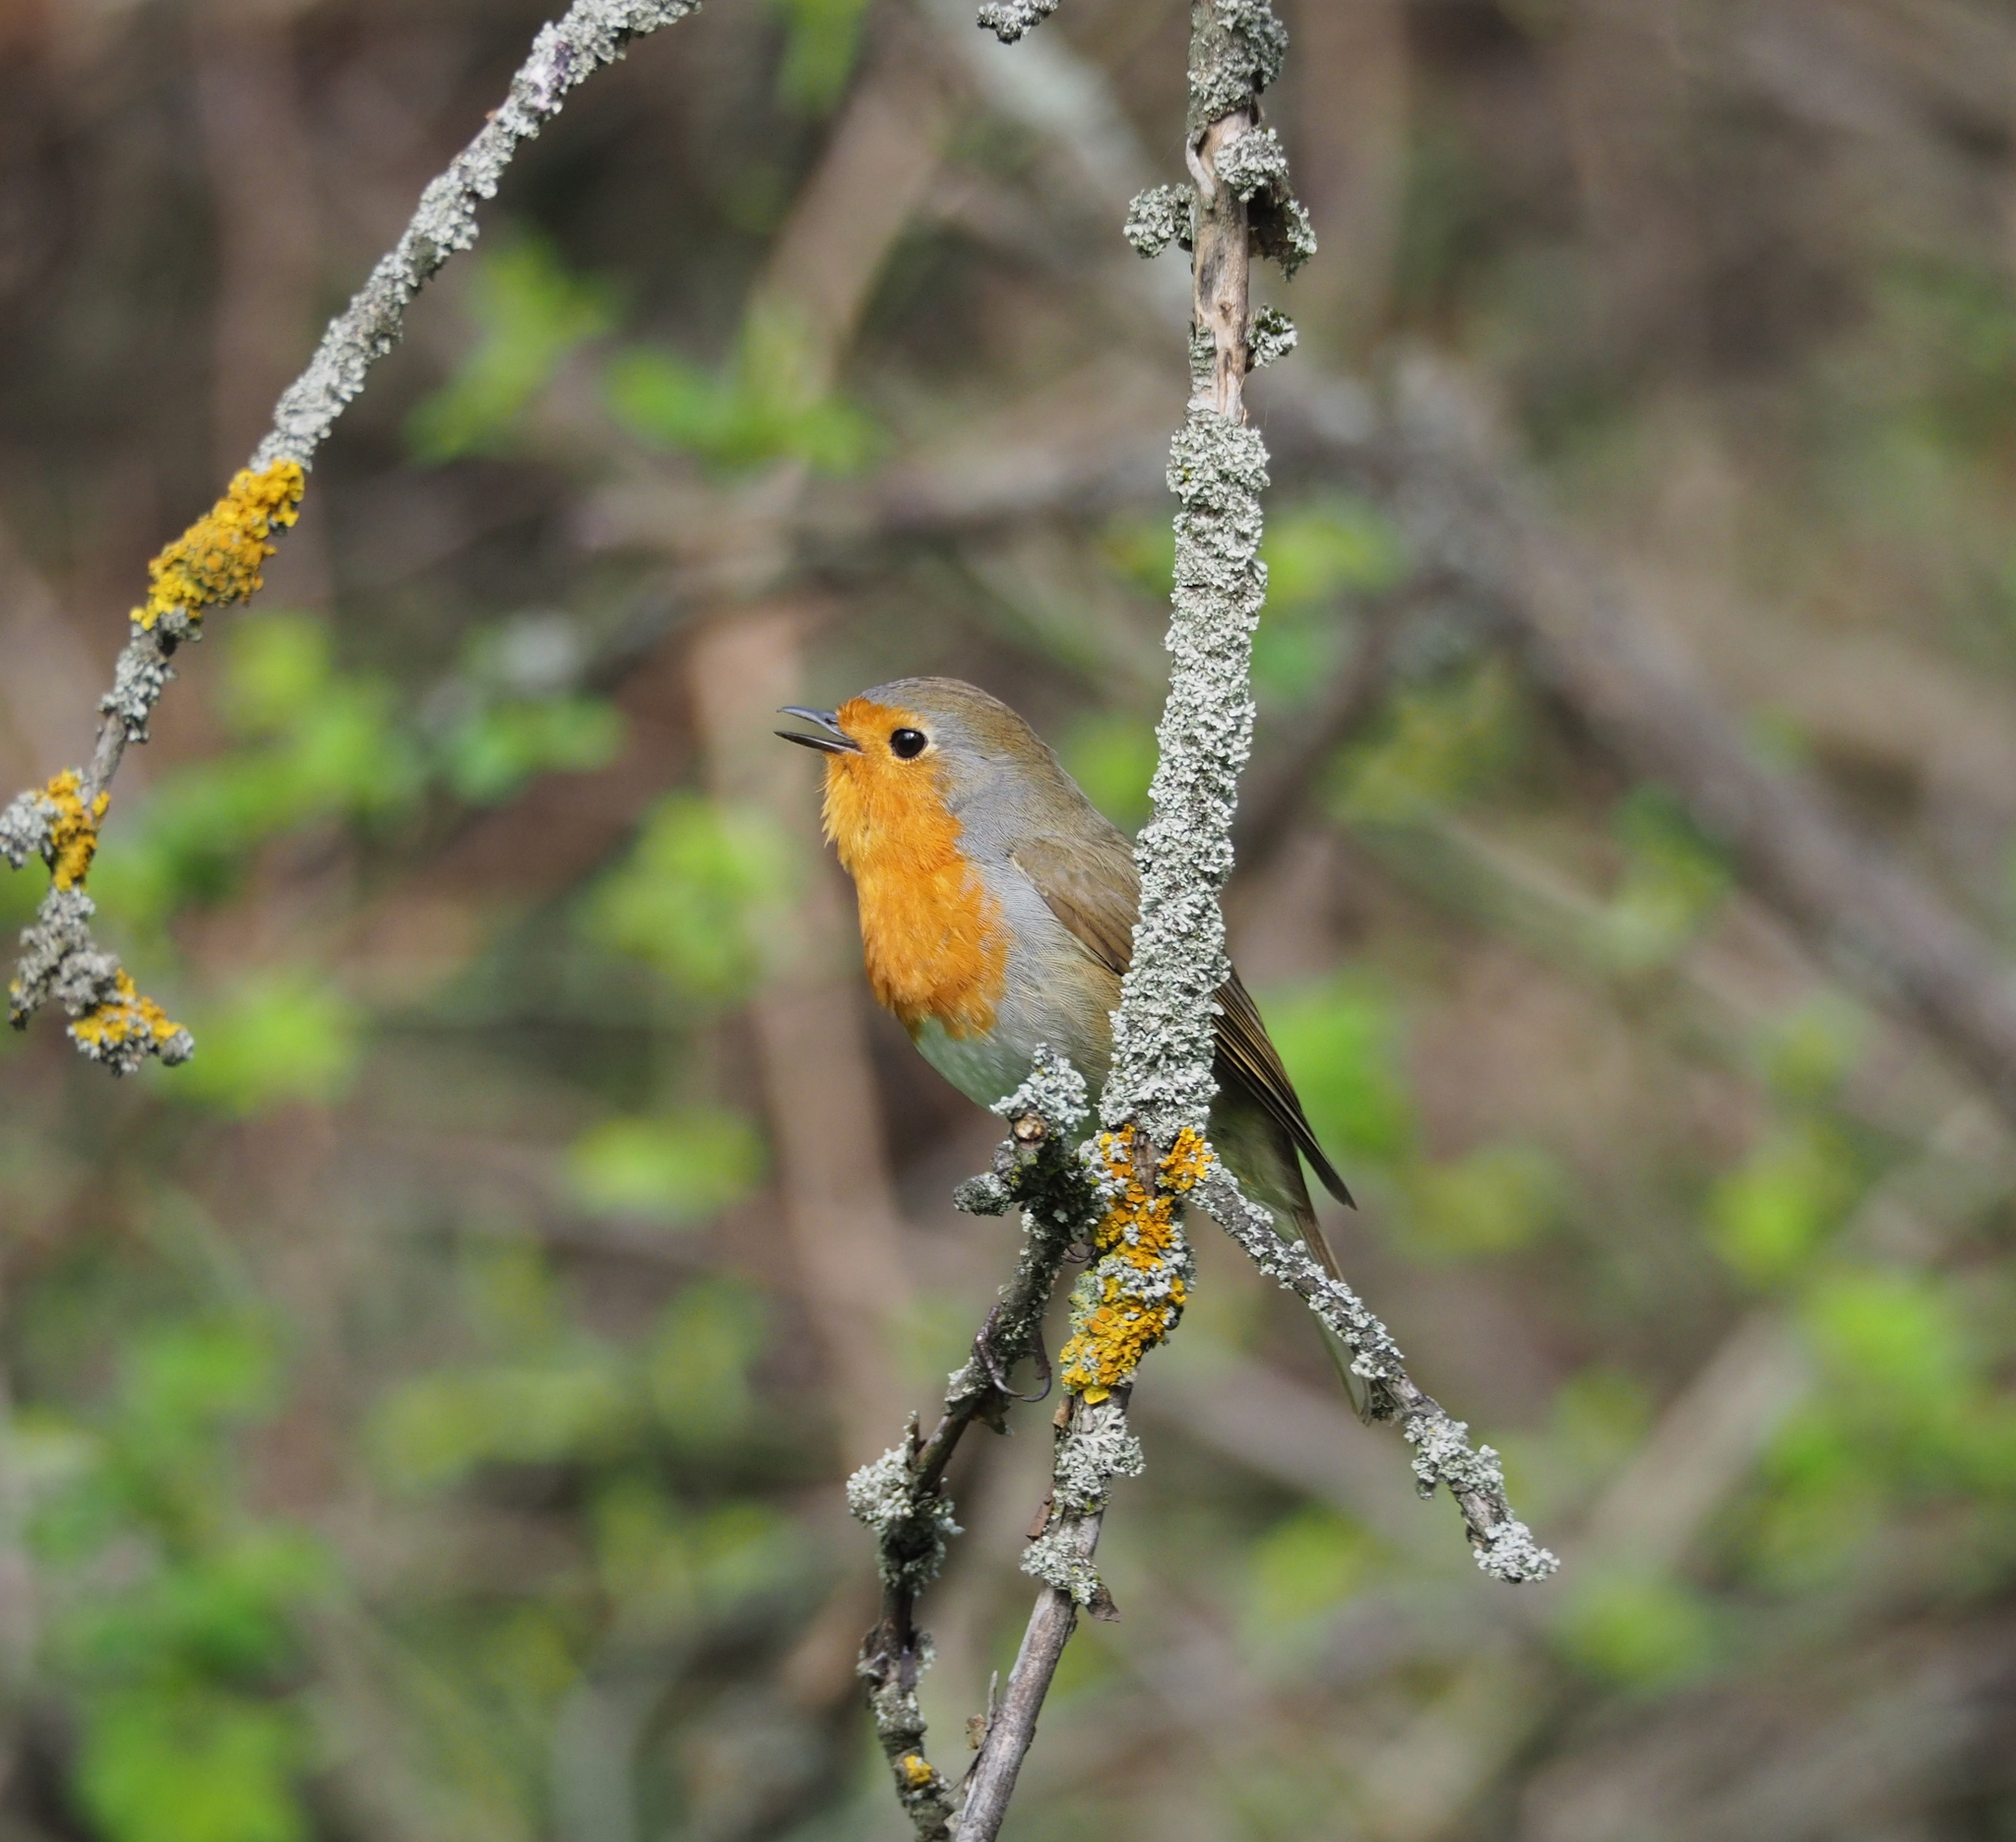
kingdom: Animalia
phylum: Chordata
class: Aves
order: Passeriformes
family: Muscicapidae
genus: Erithacus
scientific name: Erithacus rubecula
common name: European robin
